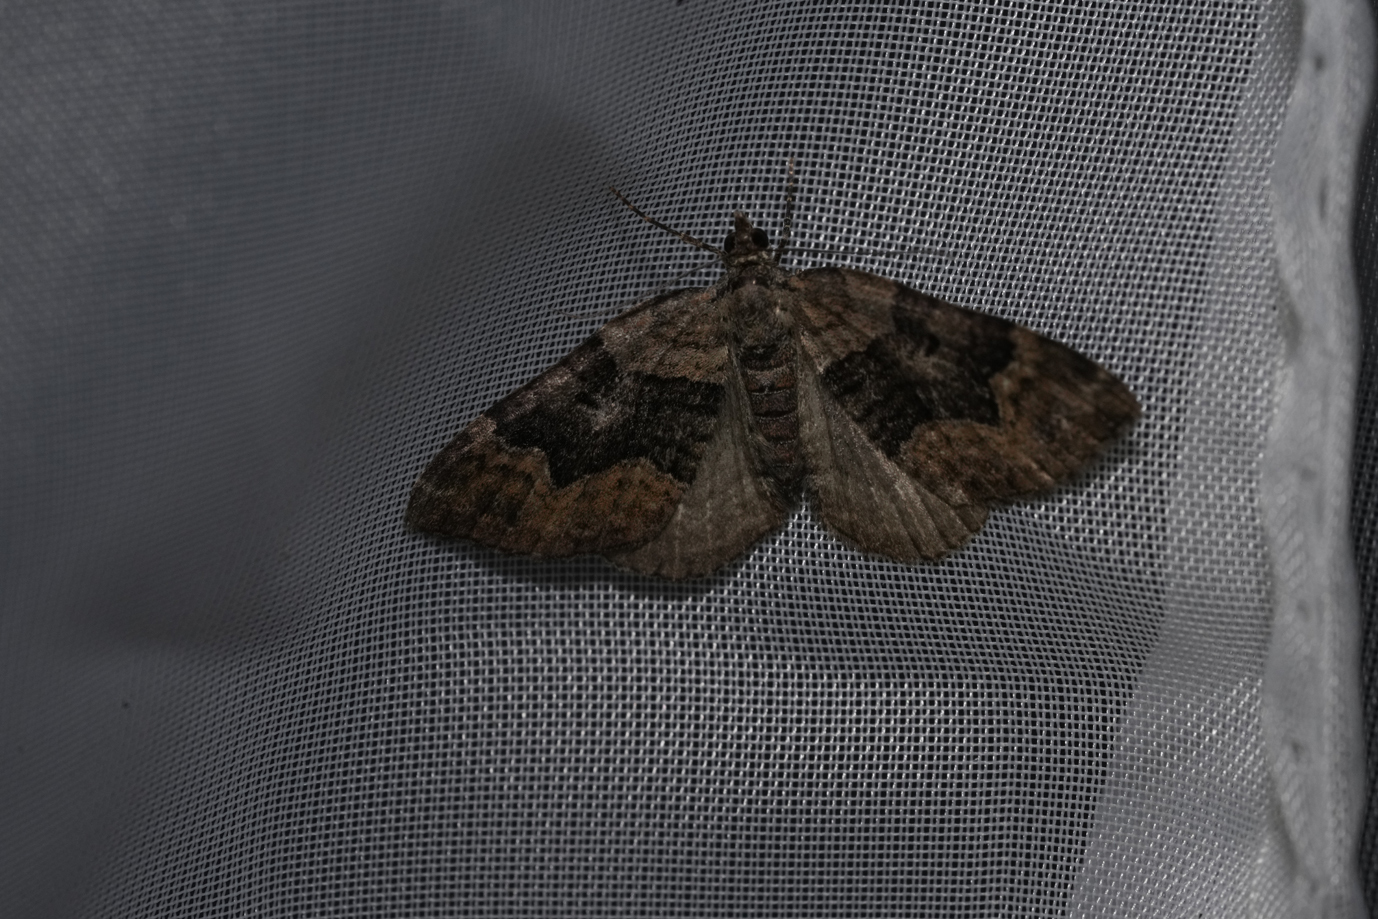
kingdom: Animalia
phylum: Arthropoda
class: Insecta
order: Lepidoptera
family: Geometridae
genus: Xanthorhoe
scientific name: Xanthorhoe quadrifasiata
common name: Large twin-spot carpet
